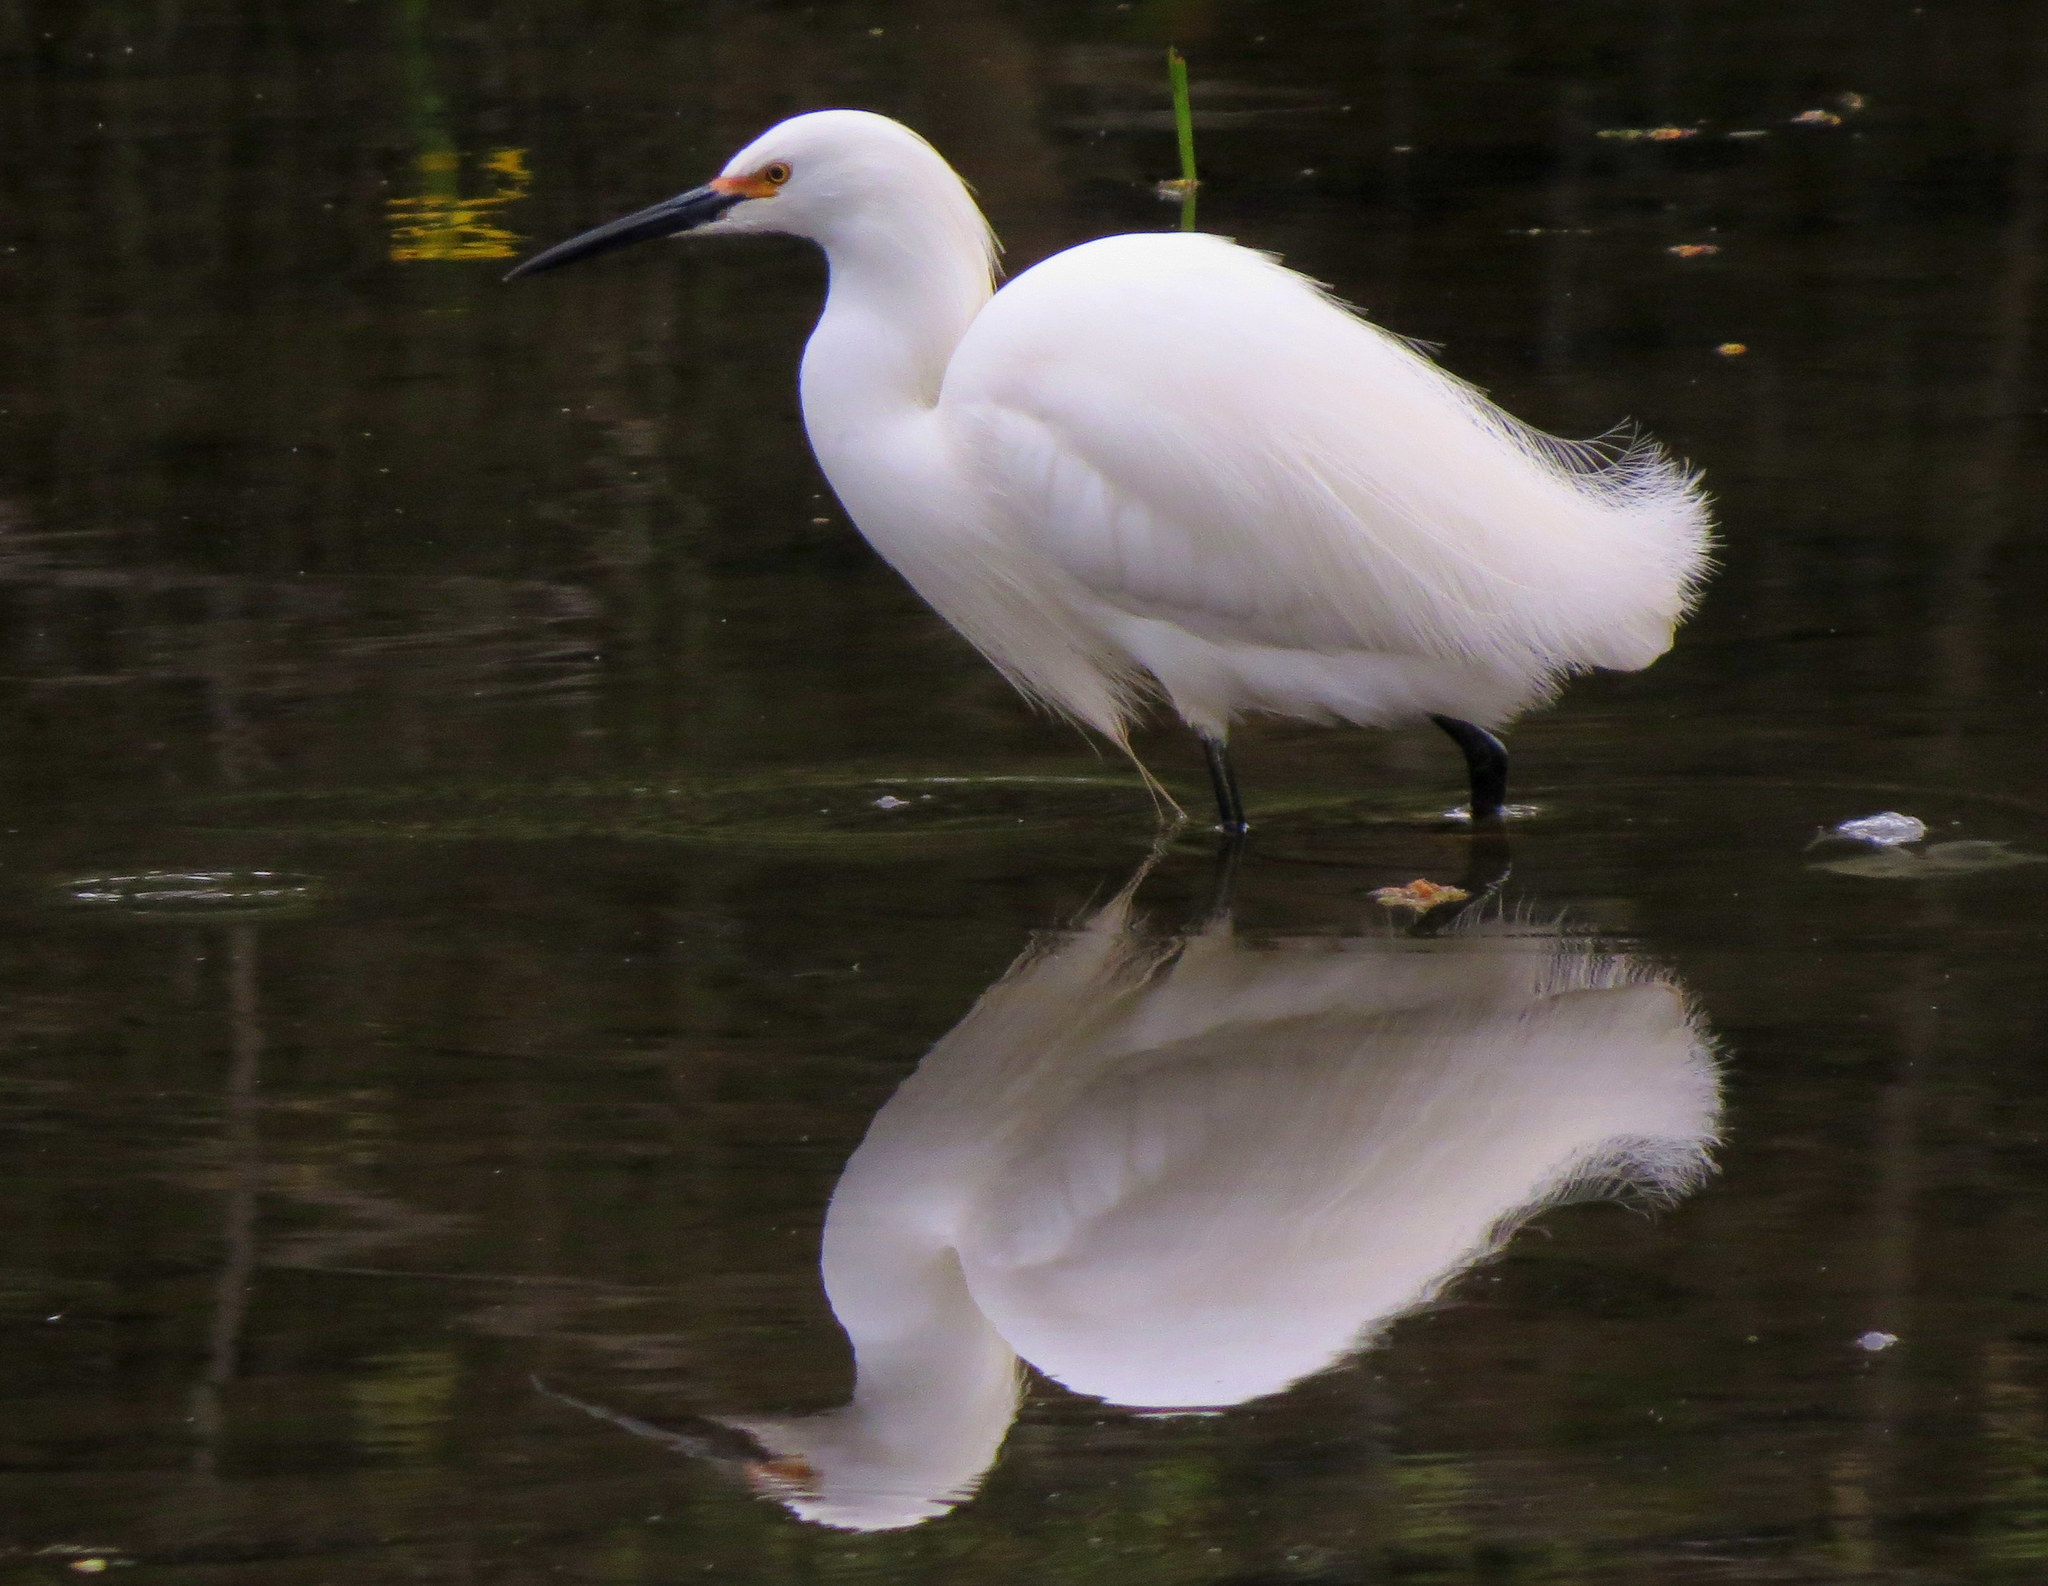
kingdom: Animalia
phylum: Chordata
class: Aves
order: Pelecaniformes
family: Ardeidae
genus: Egretta
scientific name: Egretta thula
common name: Snowy egret
